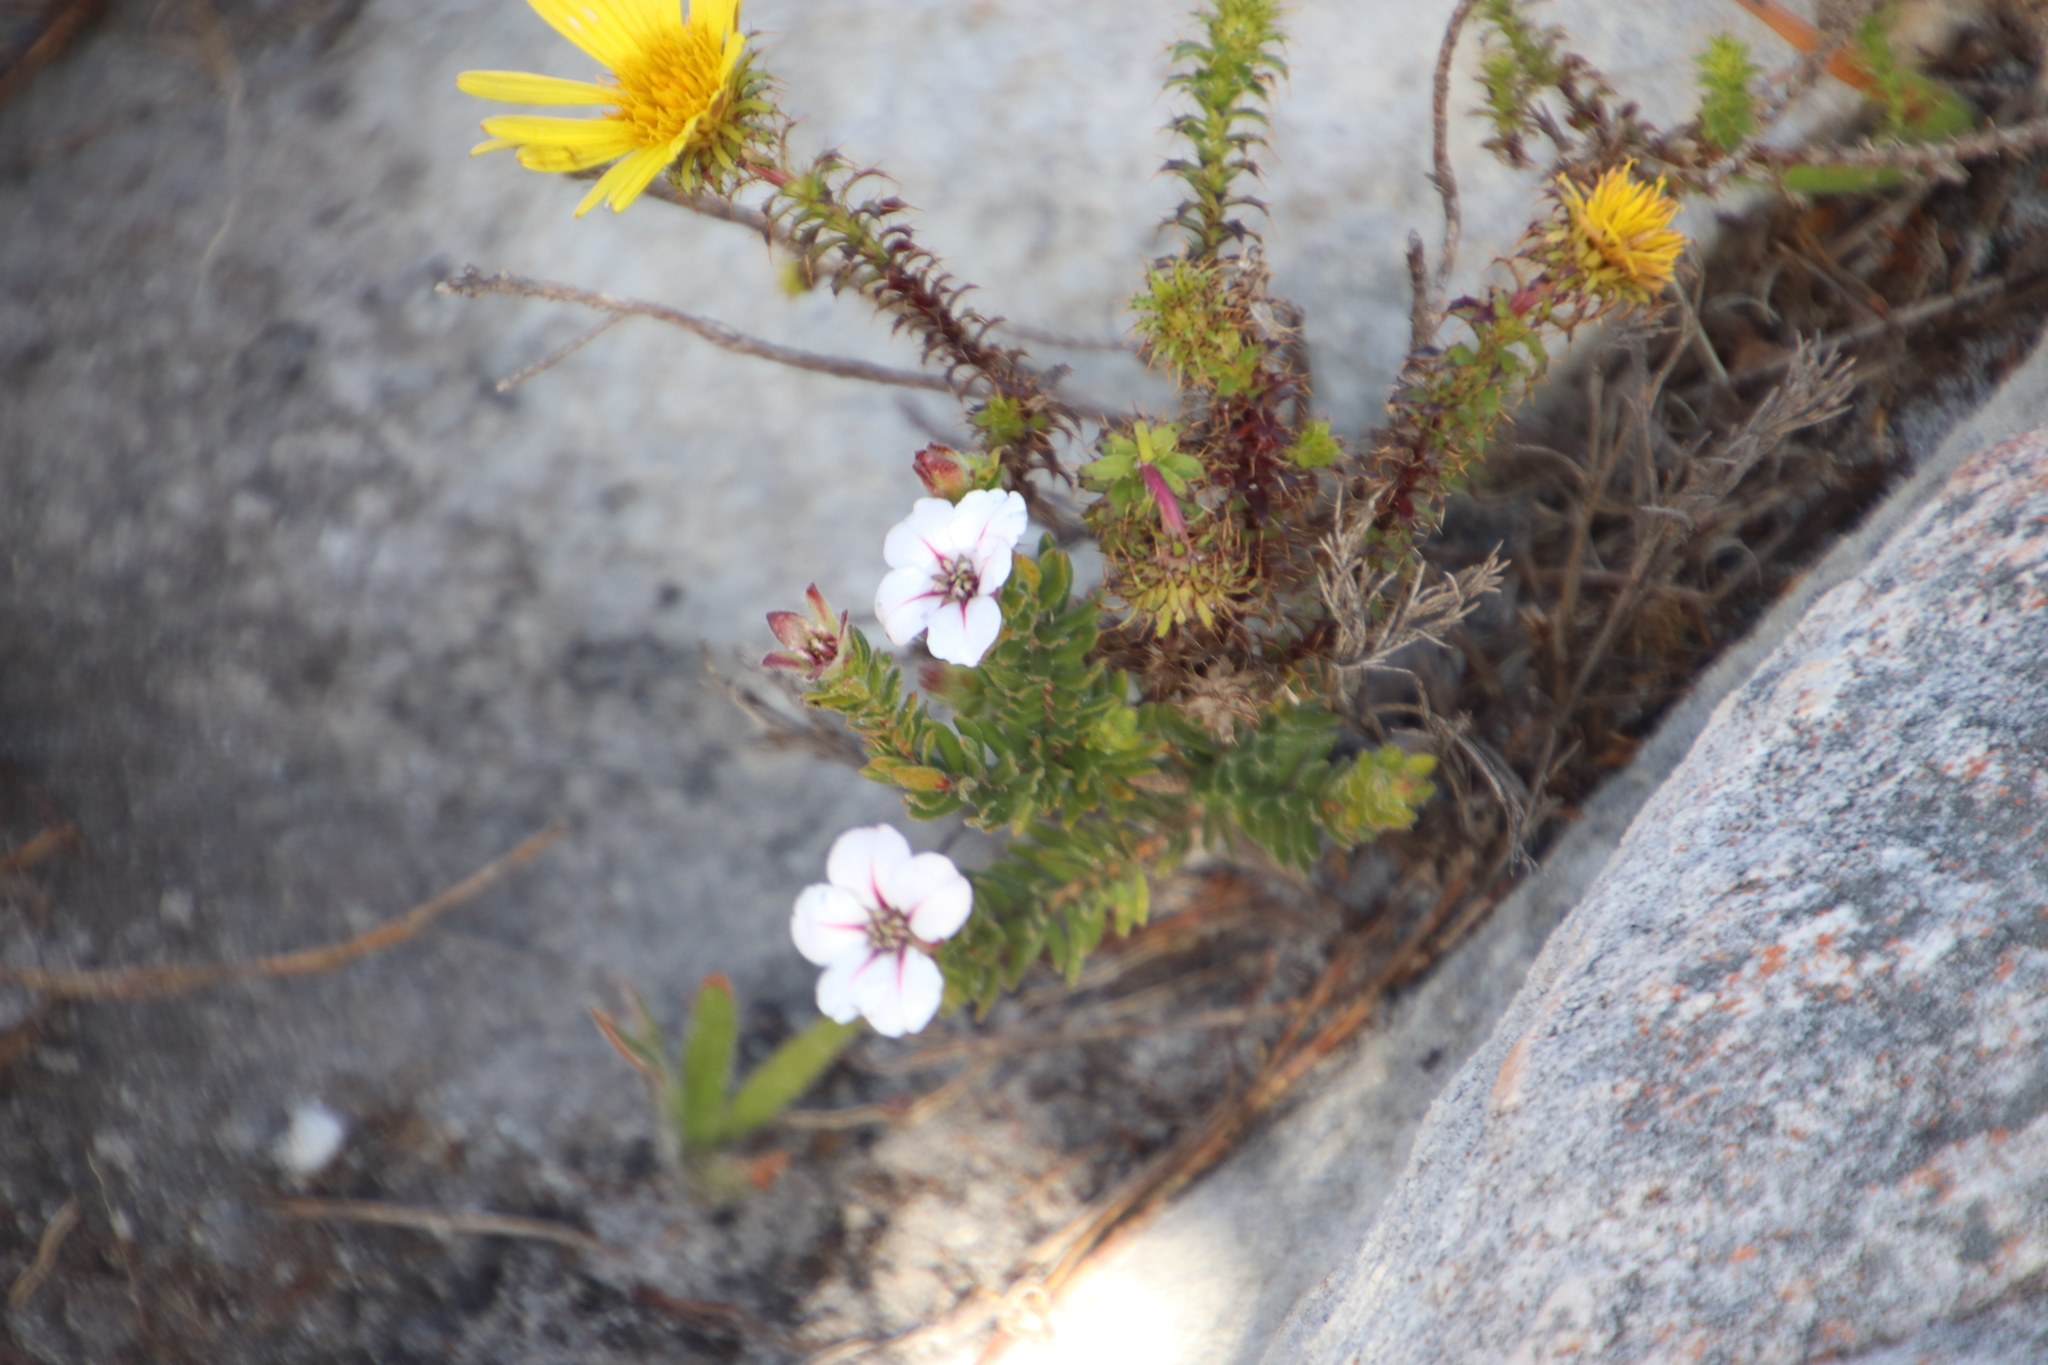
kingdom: Plantae
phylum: Tracheophyta
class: Magnoliopsida
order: Sapindales
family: Rutaceae
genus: Adenandra
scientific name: Adenandra uniflora
